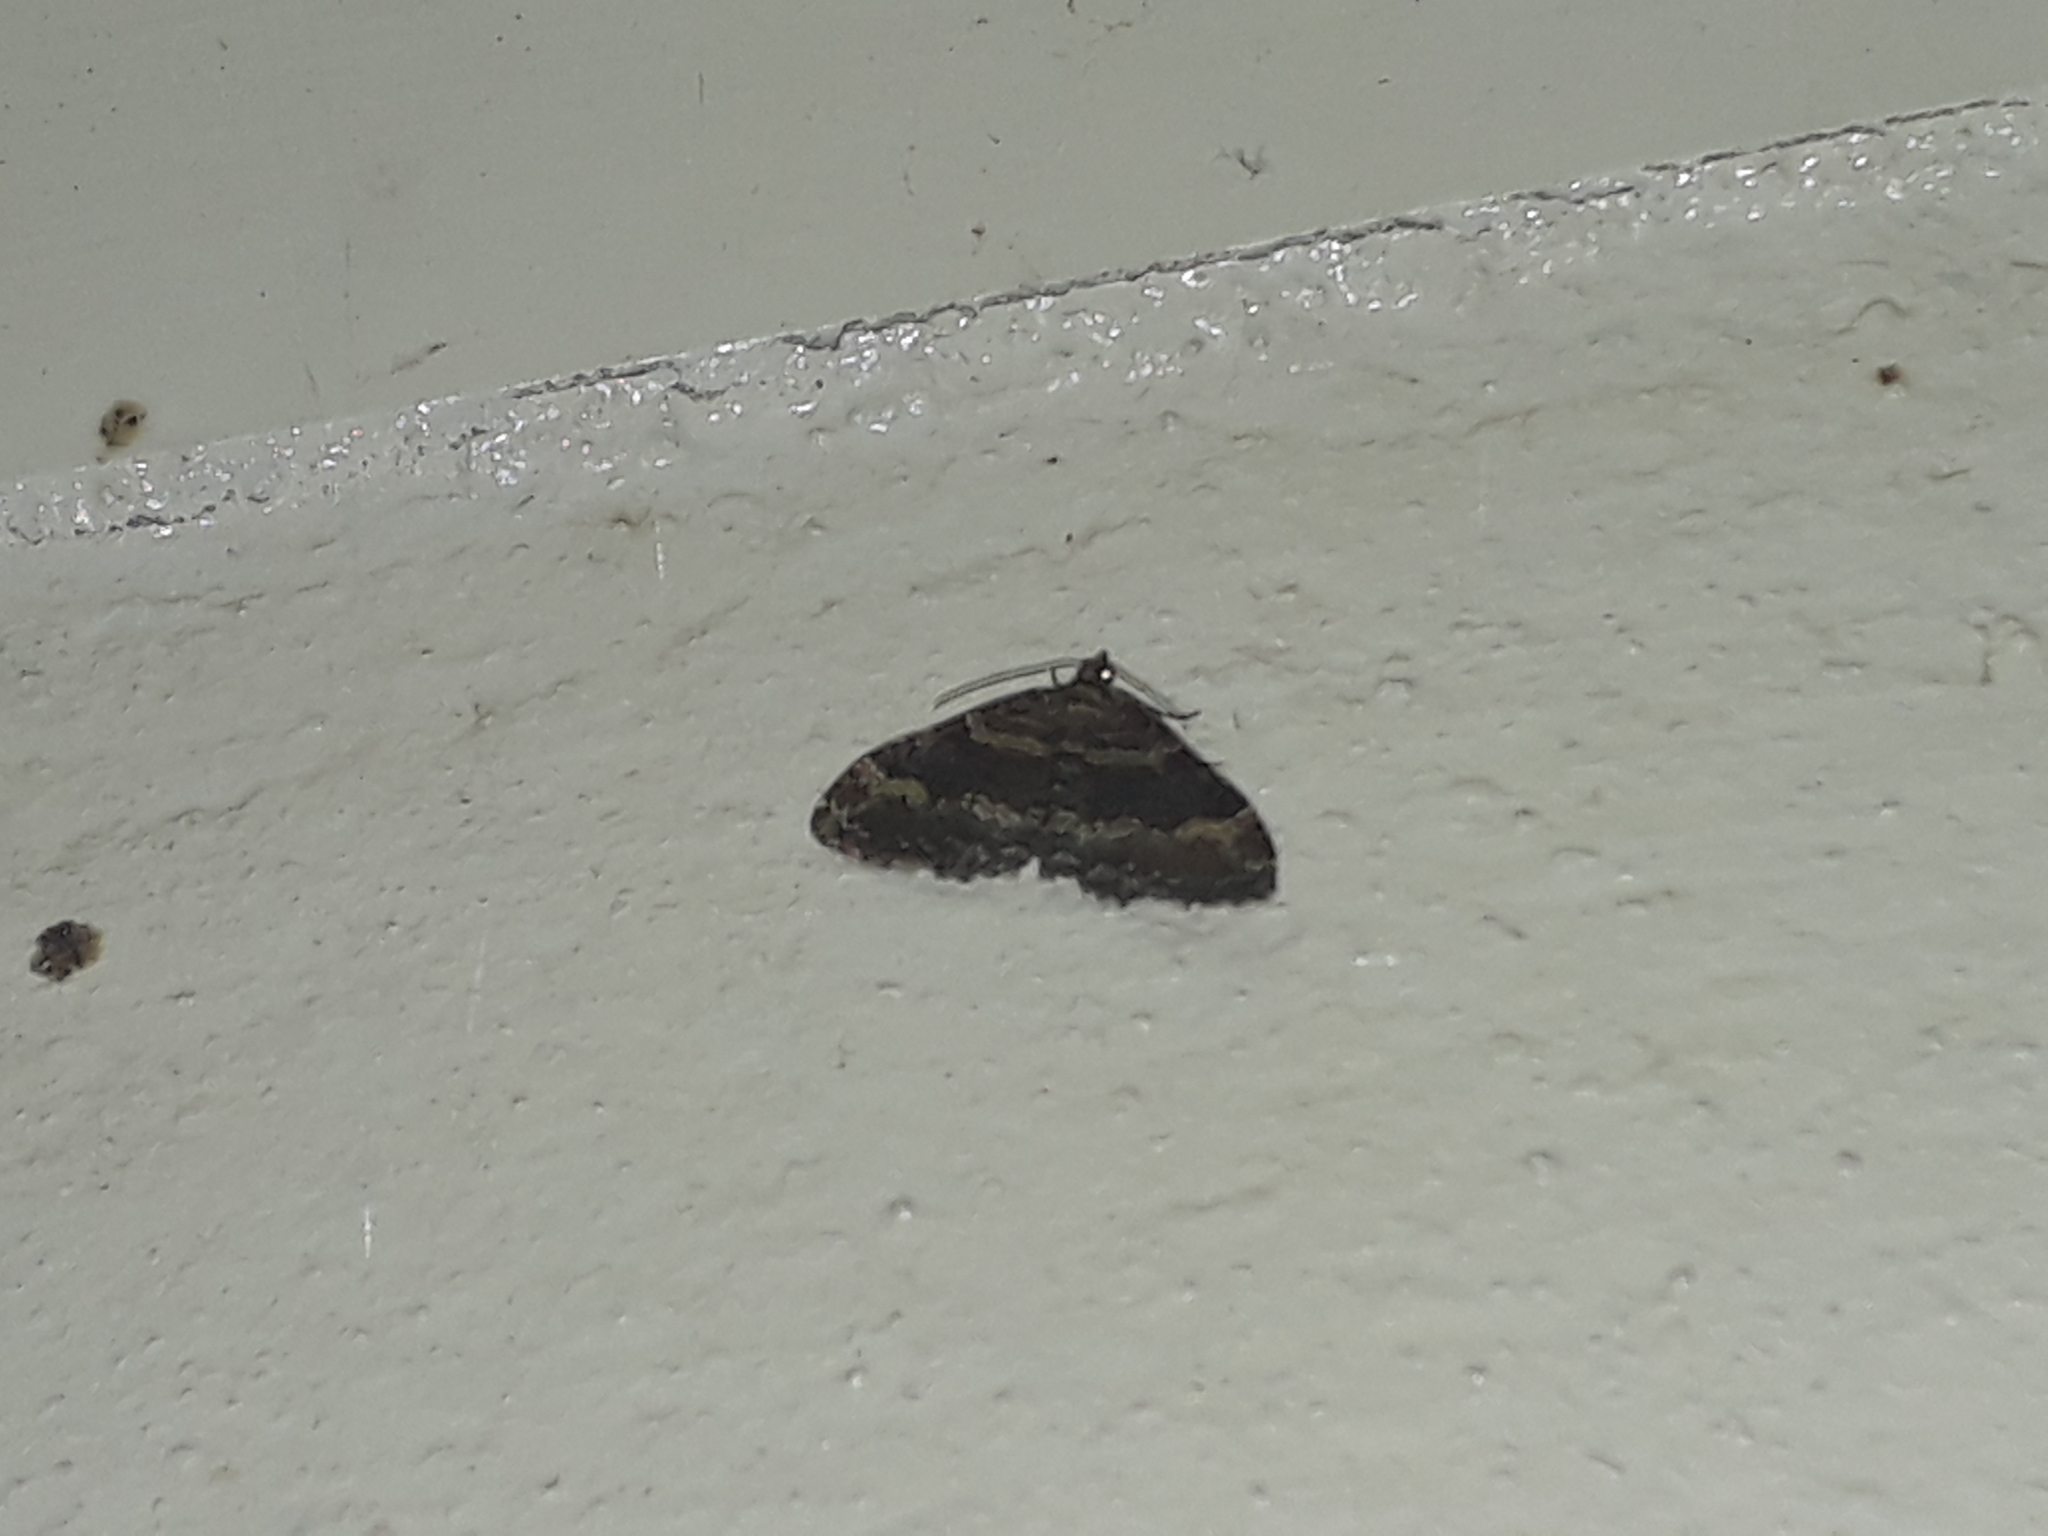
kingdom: Animalia
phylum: Arthropoda
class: Insecta
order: Lepidoptera
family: Geometridae
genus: Epyaxa
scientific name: Epyaxa lucidata
